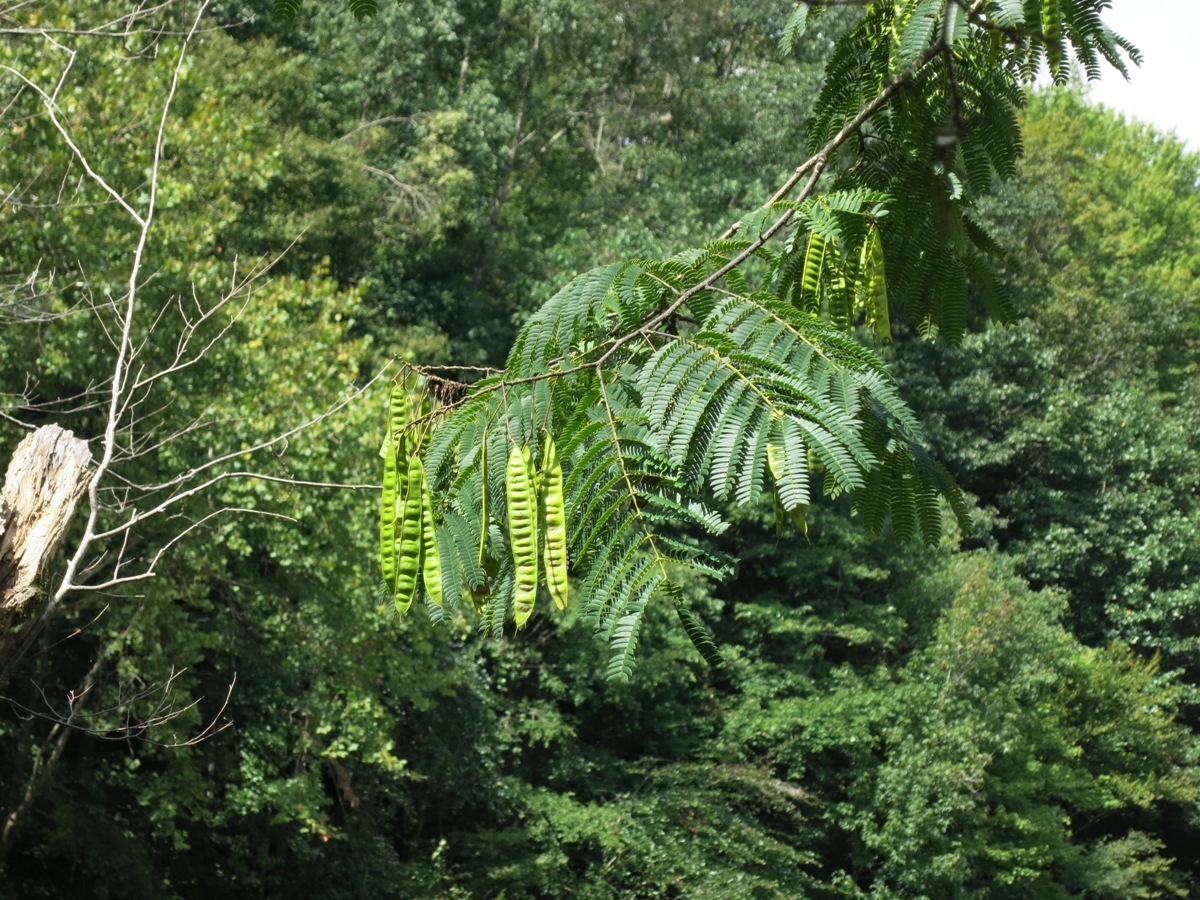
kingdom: Plantae
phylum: Tracheophyta
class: Magnoliopsida
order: Fabales
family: Fabaceae
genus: Albizia
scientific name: Albizia julibrissin
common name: Silktree
